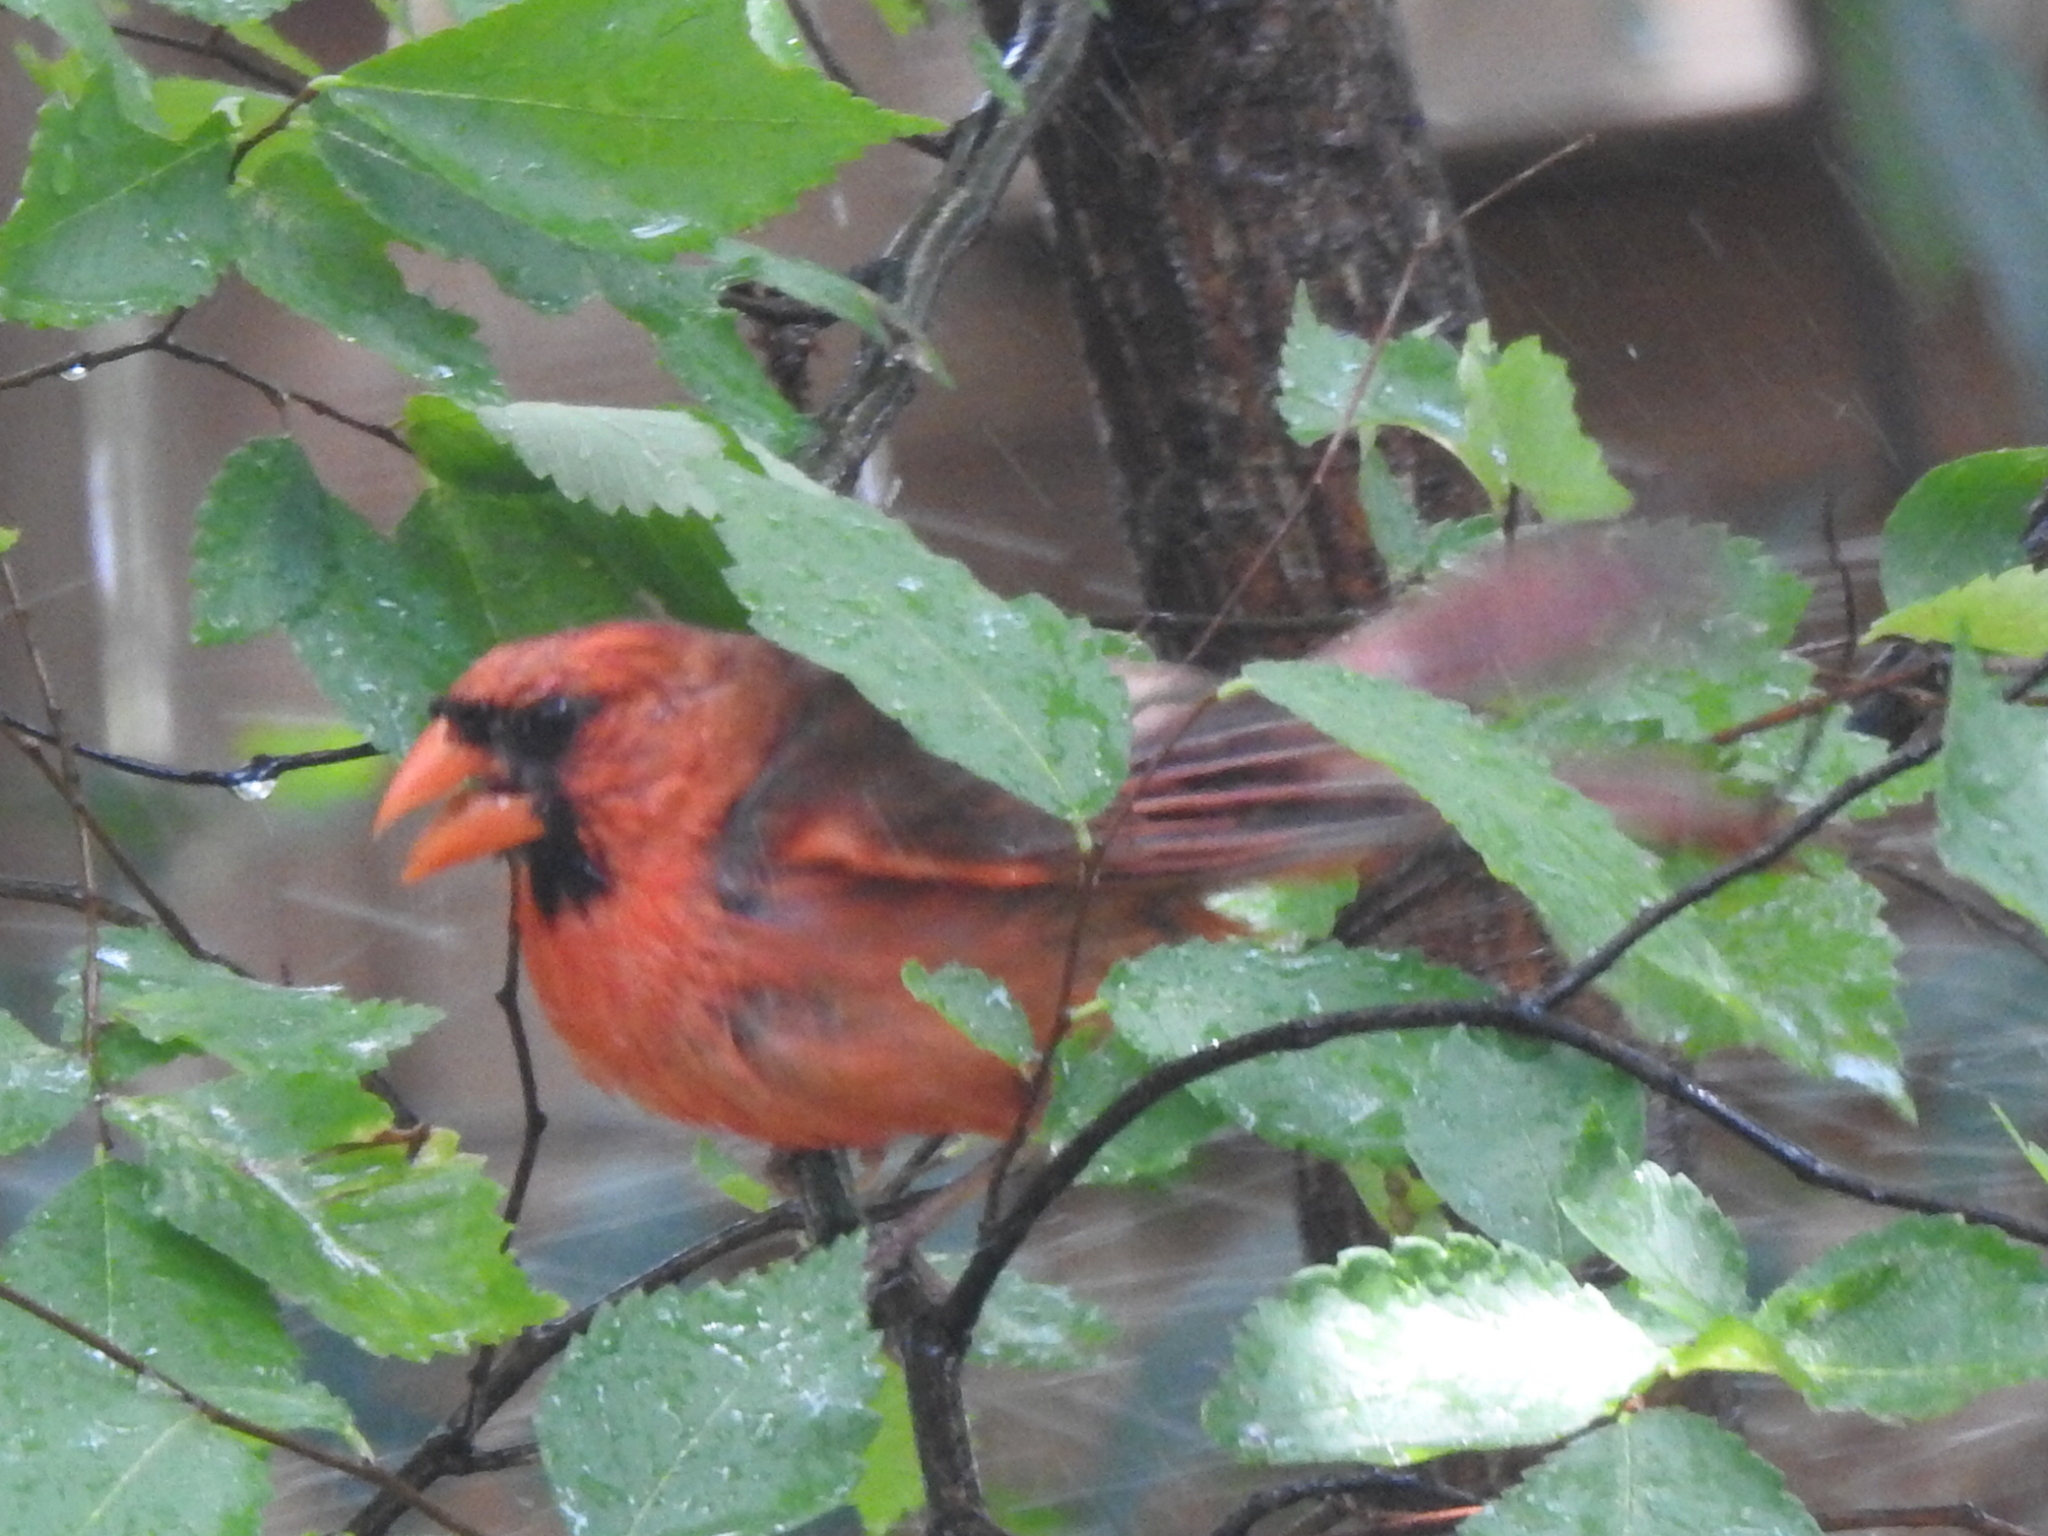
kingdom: Animalia
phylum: Chordata
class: Aves
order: Passeriformes
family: Cardinalidae
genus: Cardinalis
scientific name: Cardinalis cardinalis
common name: Northern cardinal
